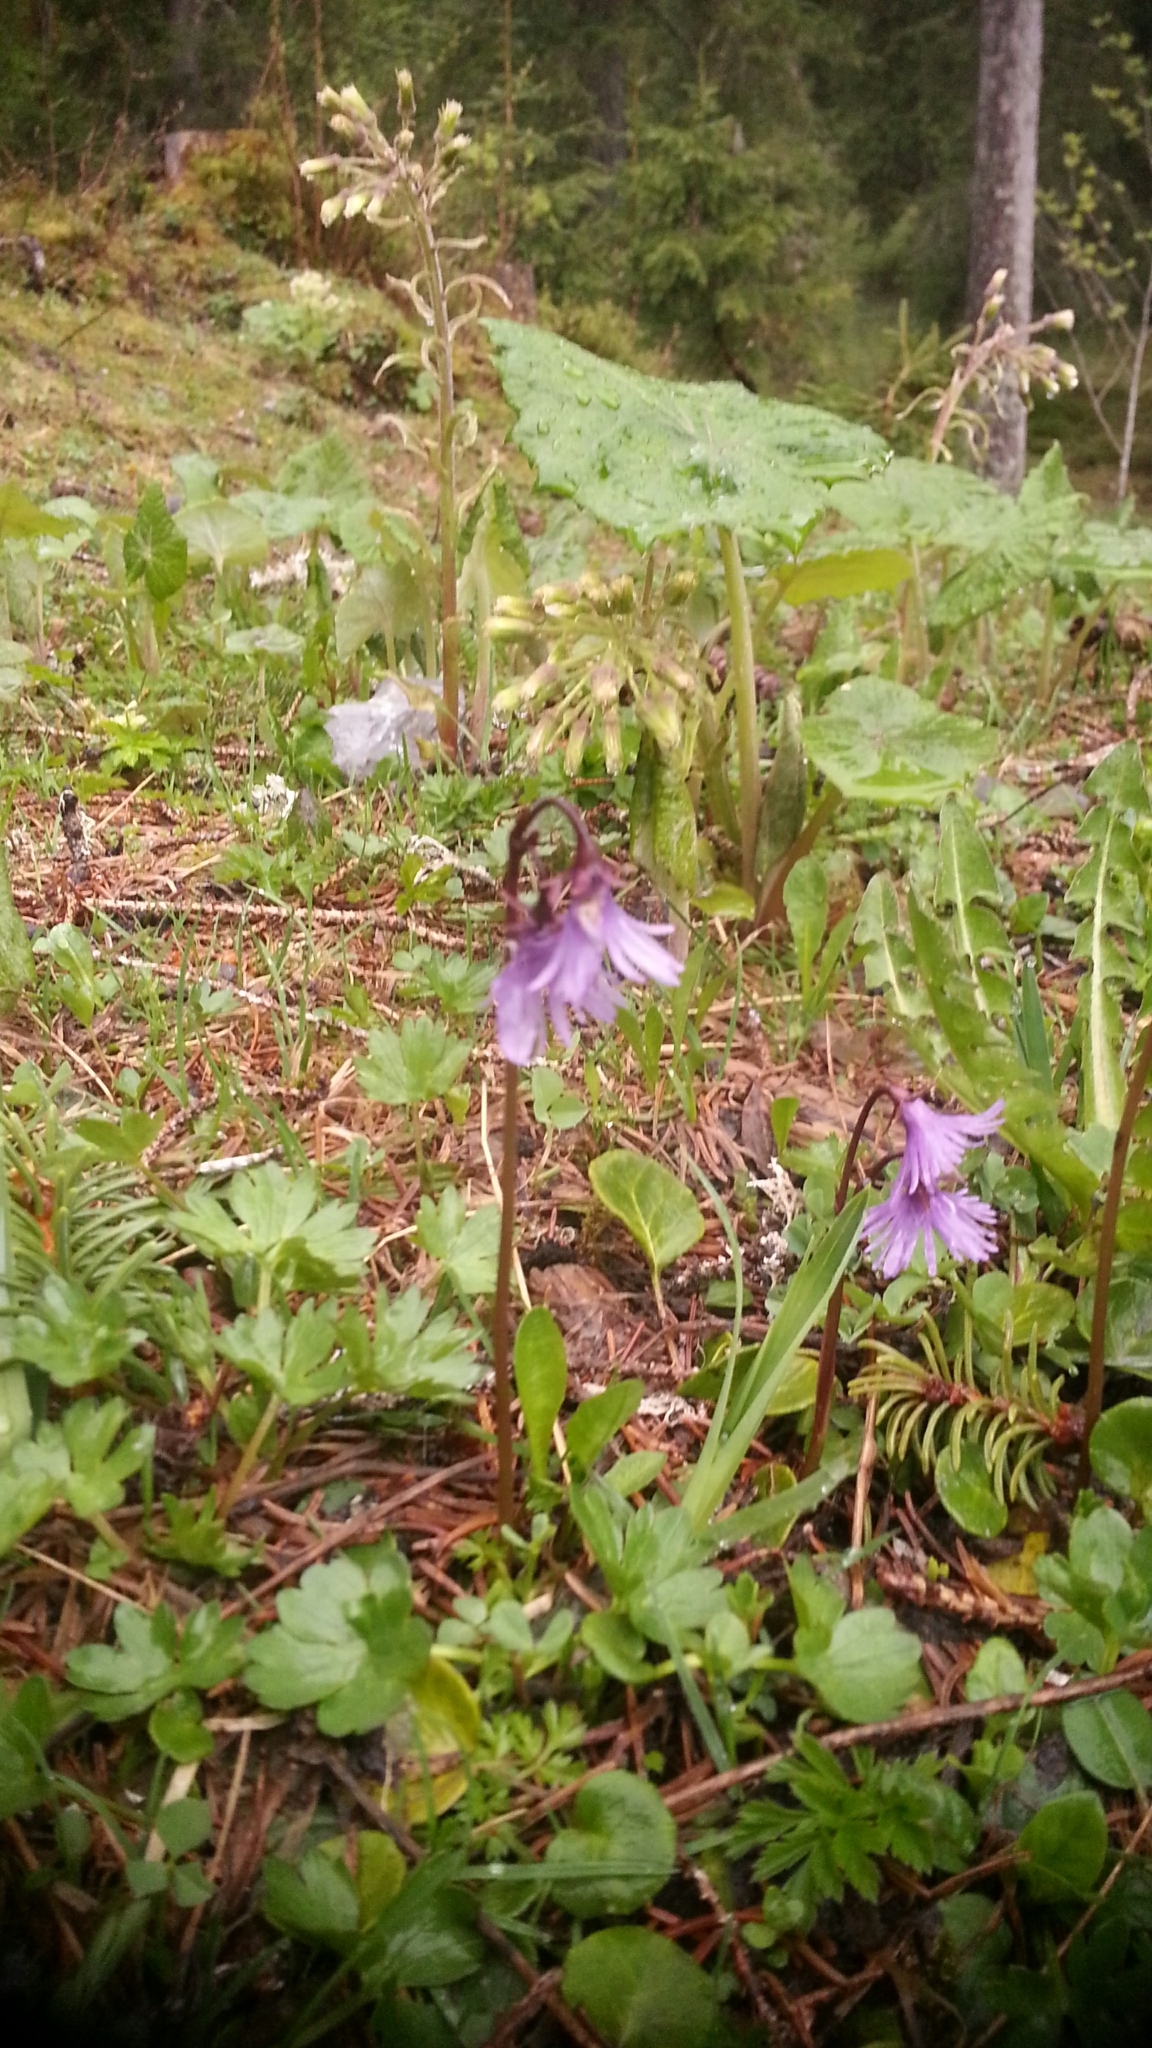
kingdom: Plantae
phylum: Tracheophyta
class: Magnoliopsida
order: Ericales
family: Primulaceae
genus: Soldanella
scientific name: Soldanella alpina
